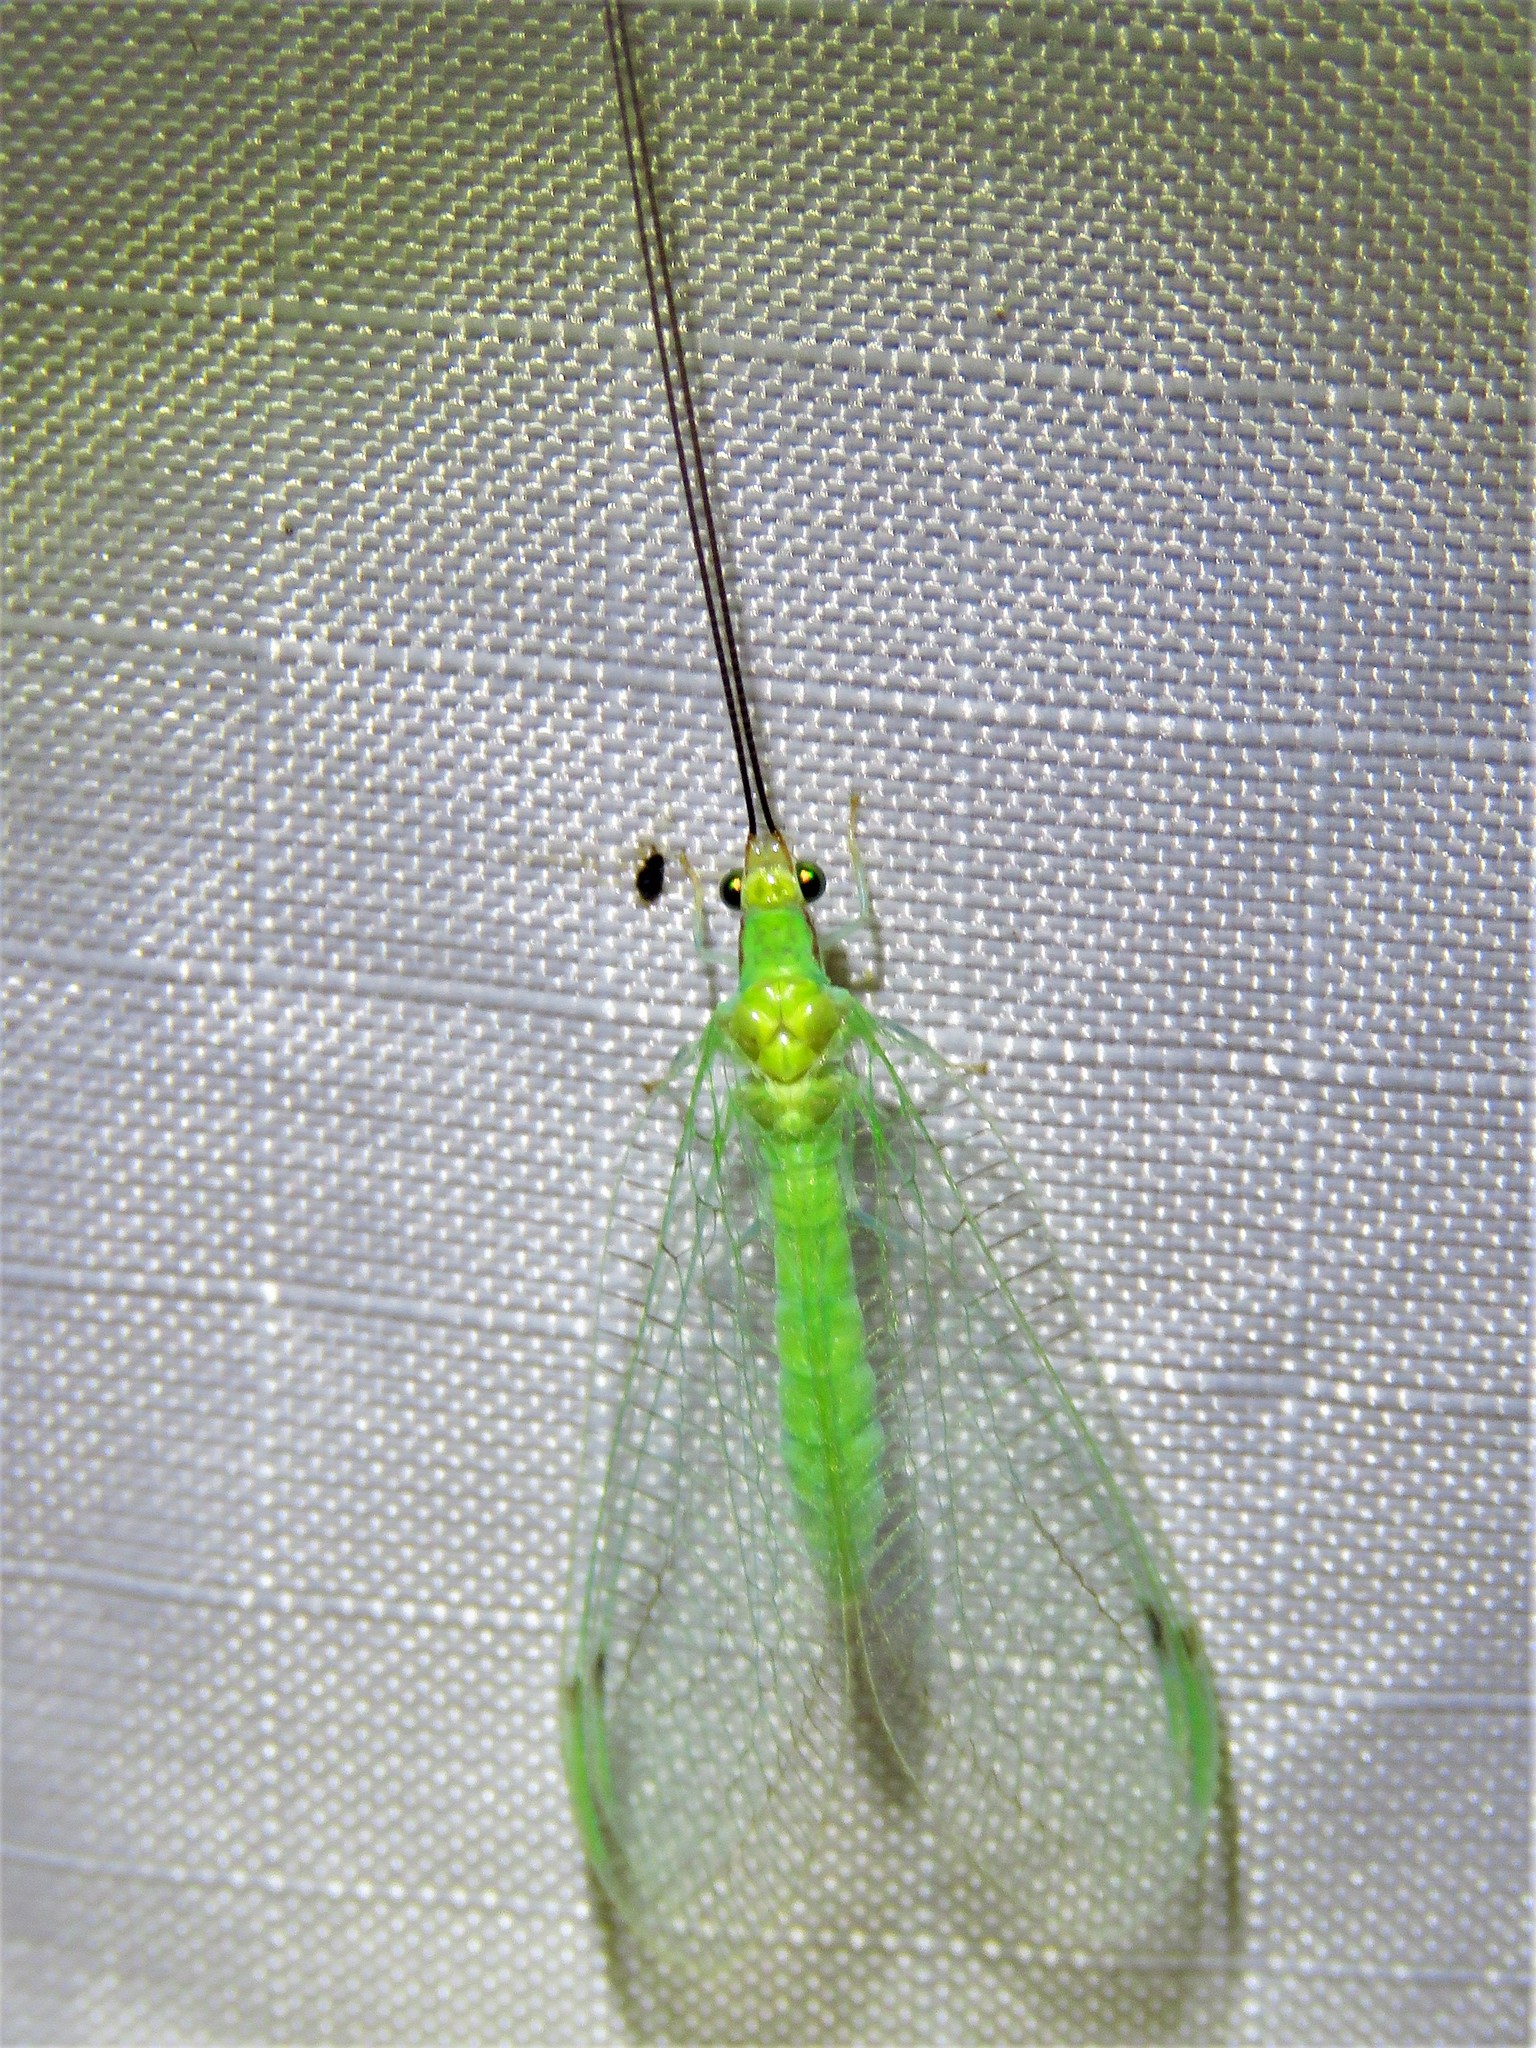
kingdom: Animalia
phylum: Arthropoda
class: Insecta
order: Neuroptera
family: Chrysopidae
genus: Leucochrysa
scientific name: Leucochrysa pavida
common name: Lichen-carrying green lacewing
